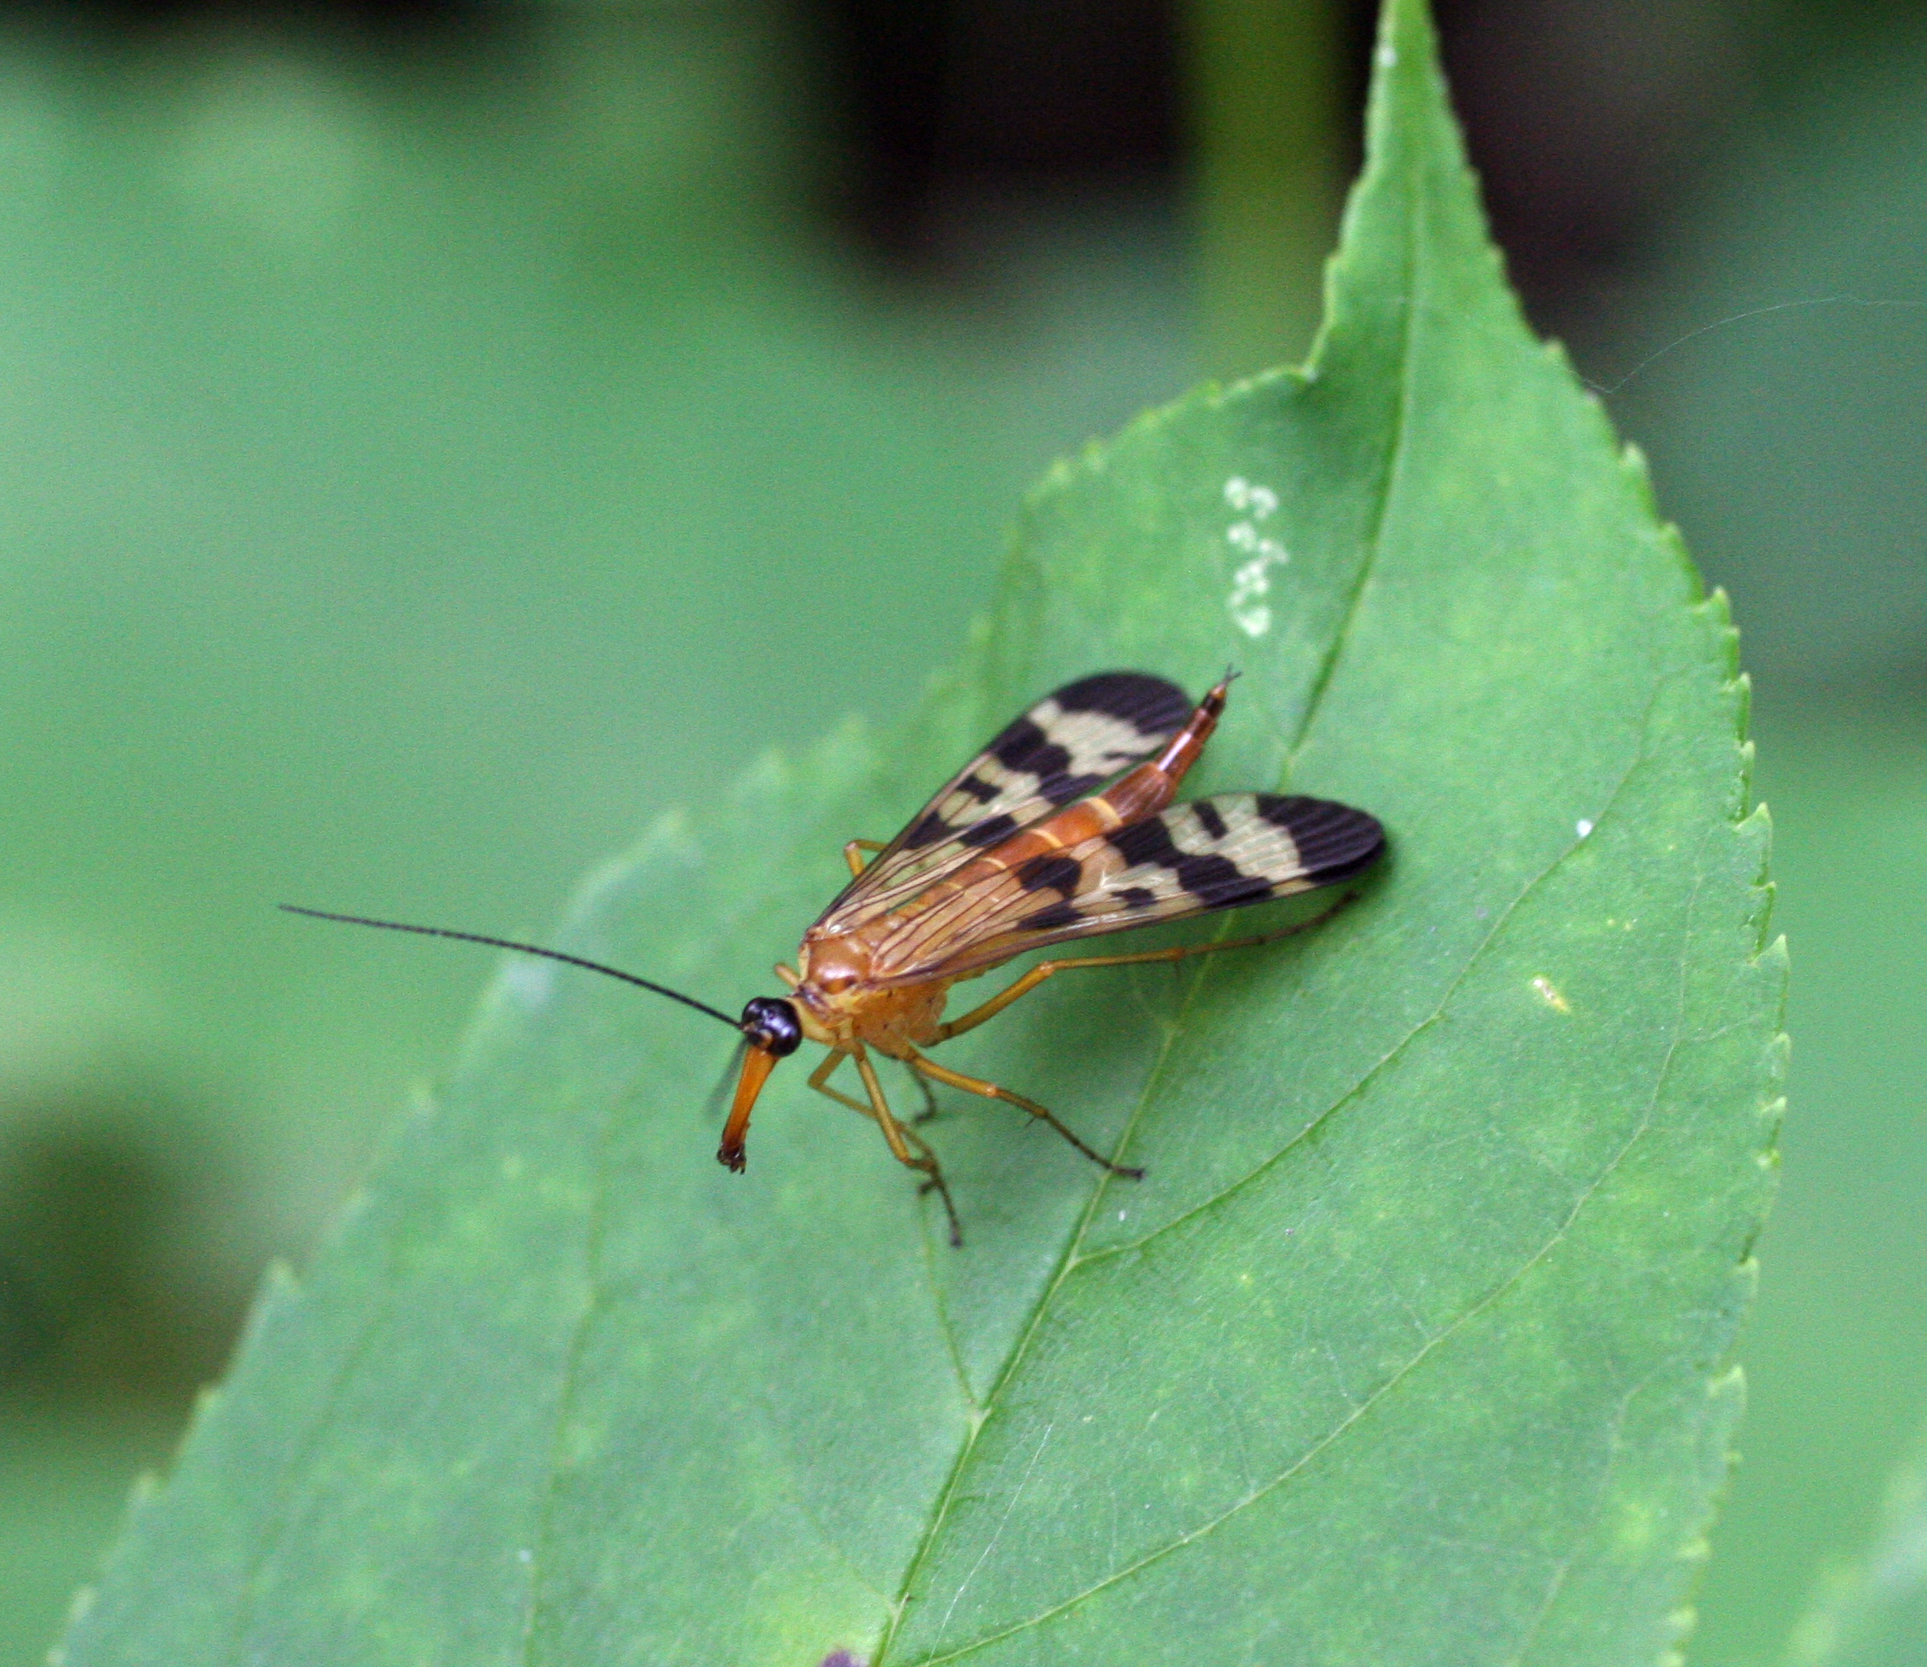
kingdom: Animalia
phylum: Arthropoda
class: Insecta
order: Mecoptera
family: Panorpidae
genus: Panorpa
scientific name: Panorpa amurensis
